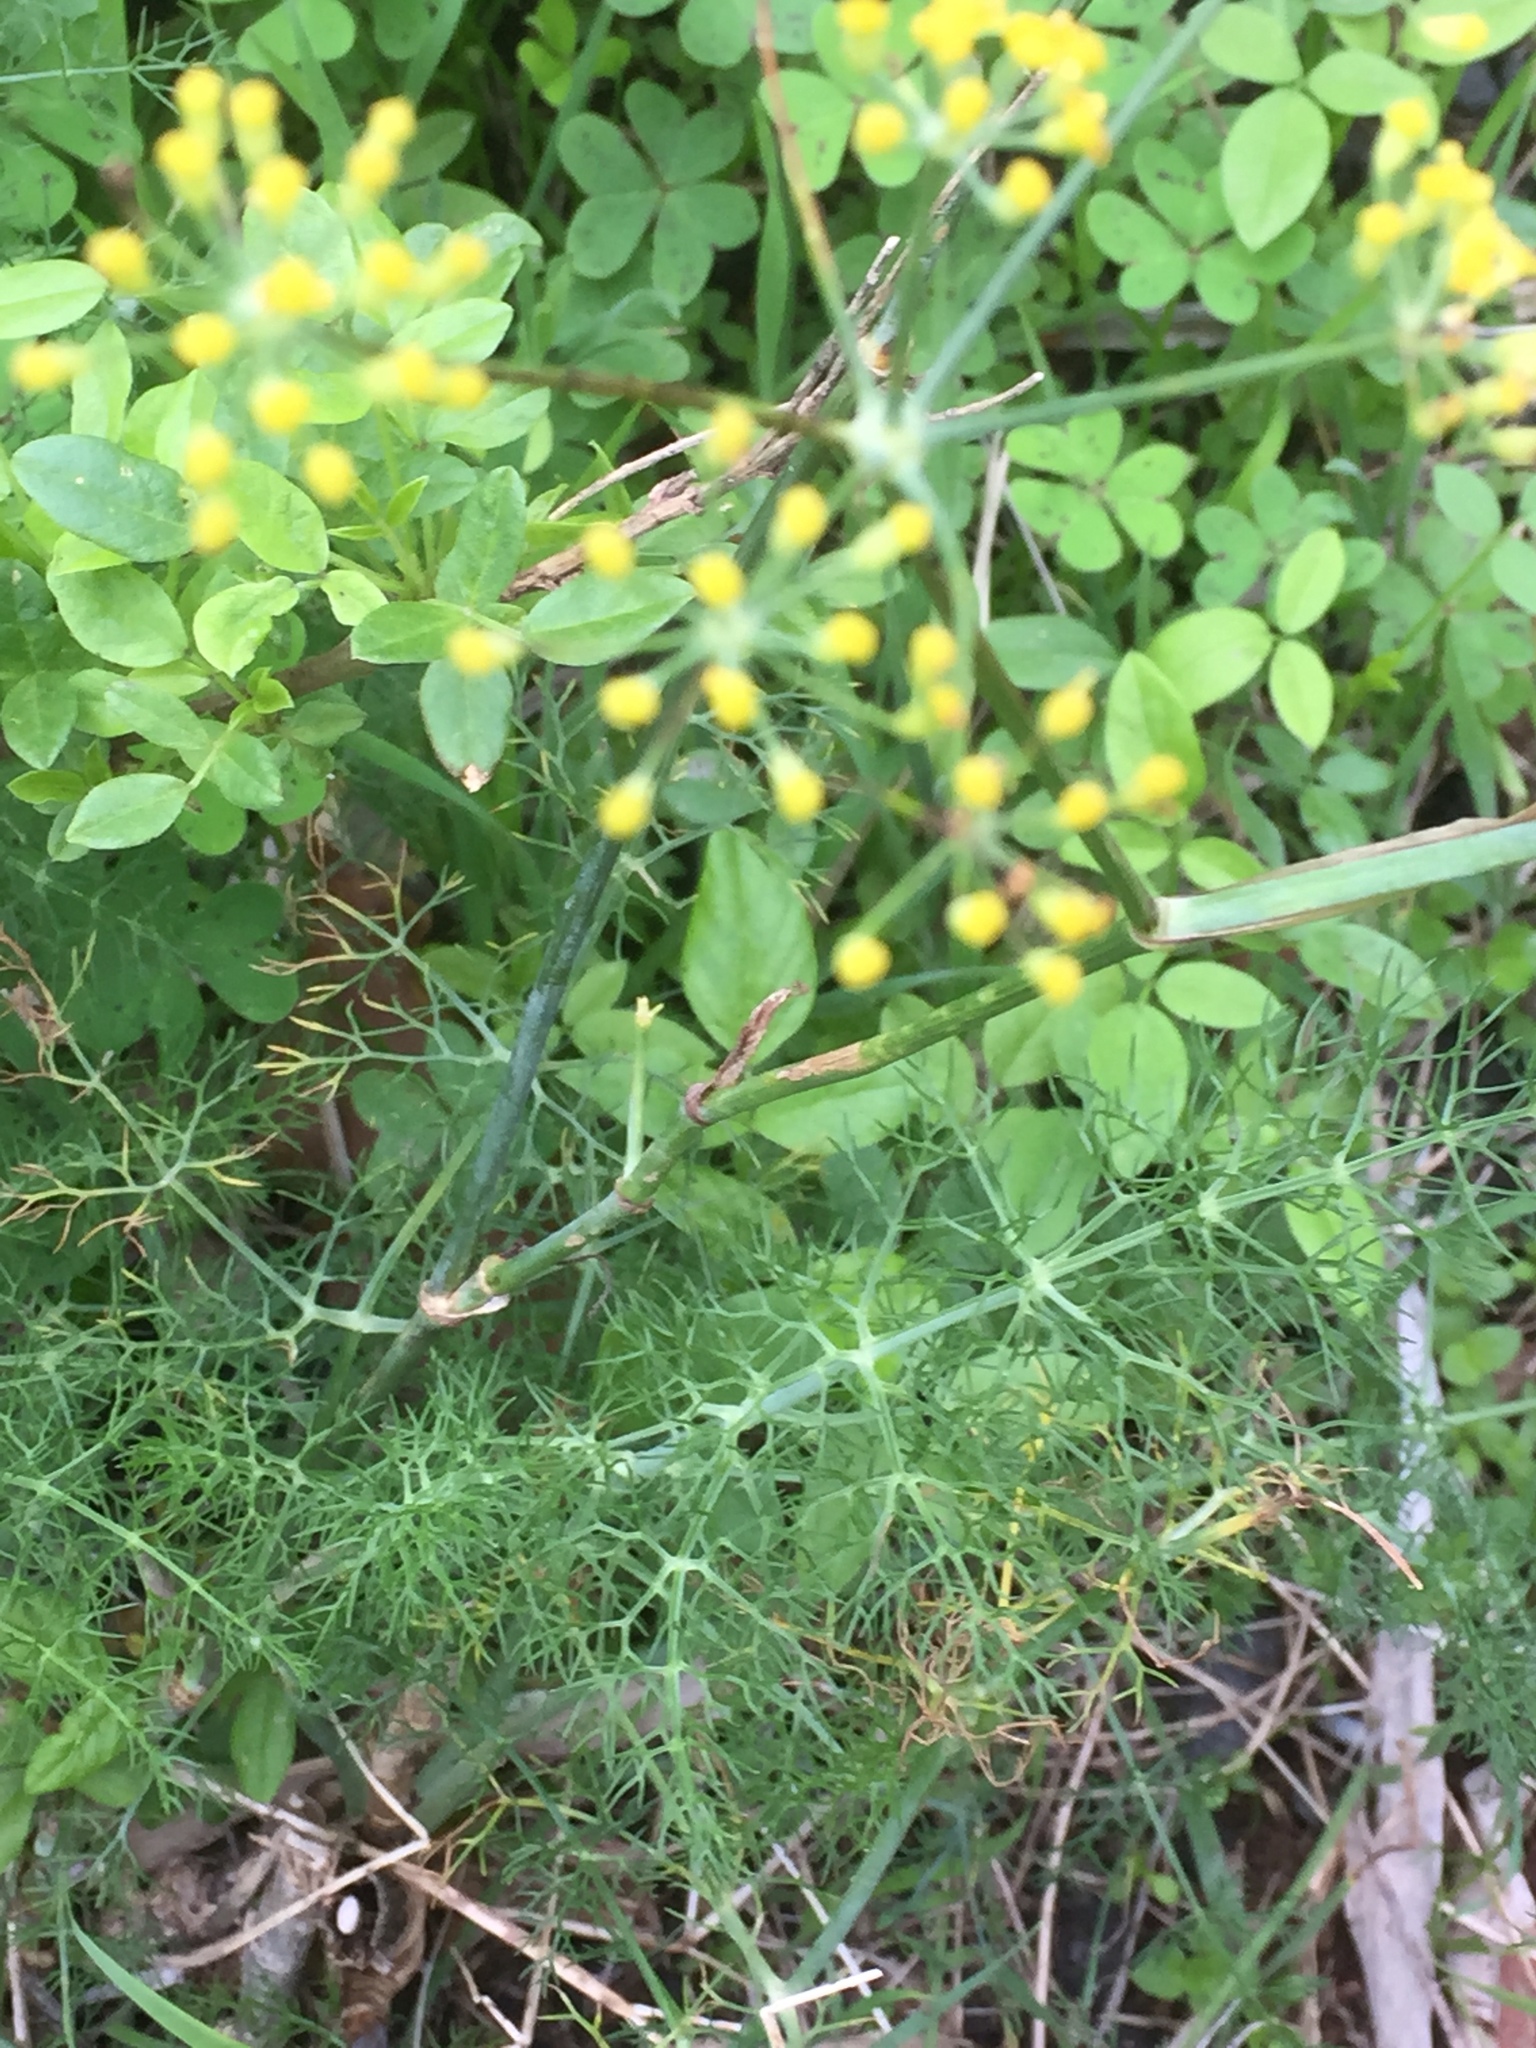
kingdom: Plantae
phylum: Tracheophyta
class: Magnoliopsida
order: Apiales
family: Apiaceae
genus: Foeniculum
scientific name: Foeniculum vulgare
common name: Fennel
